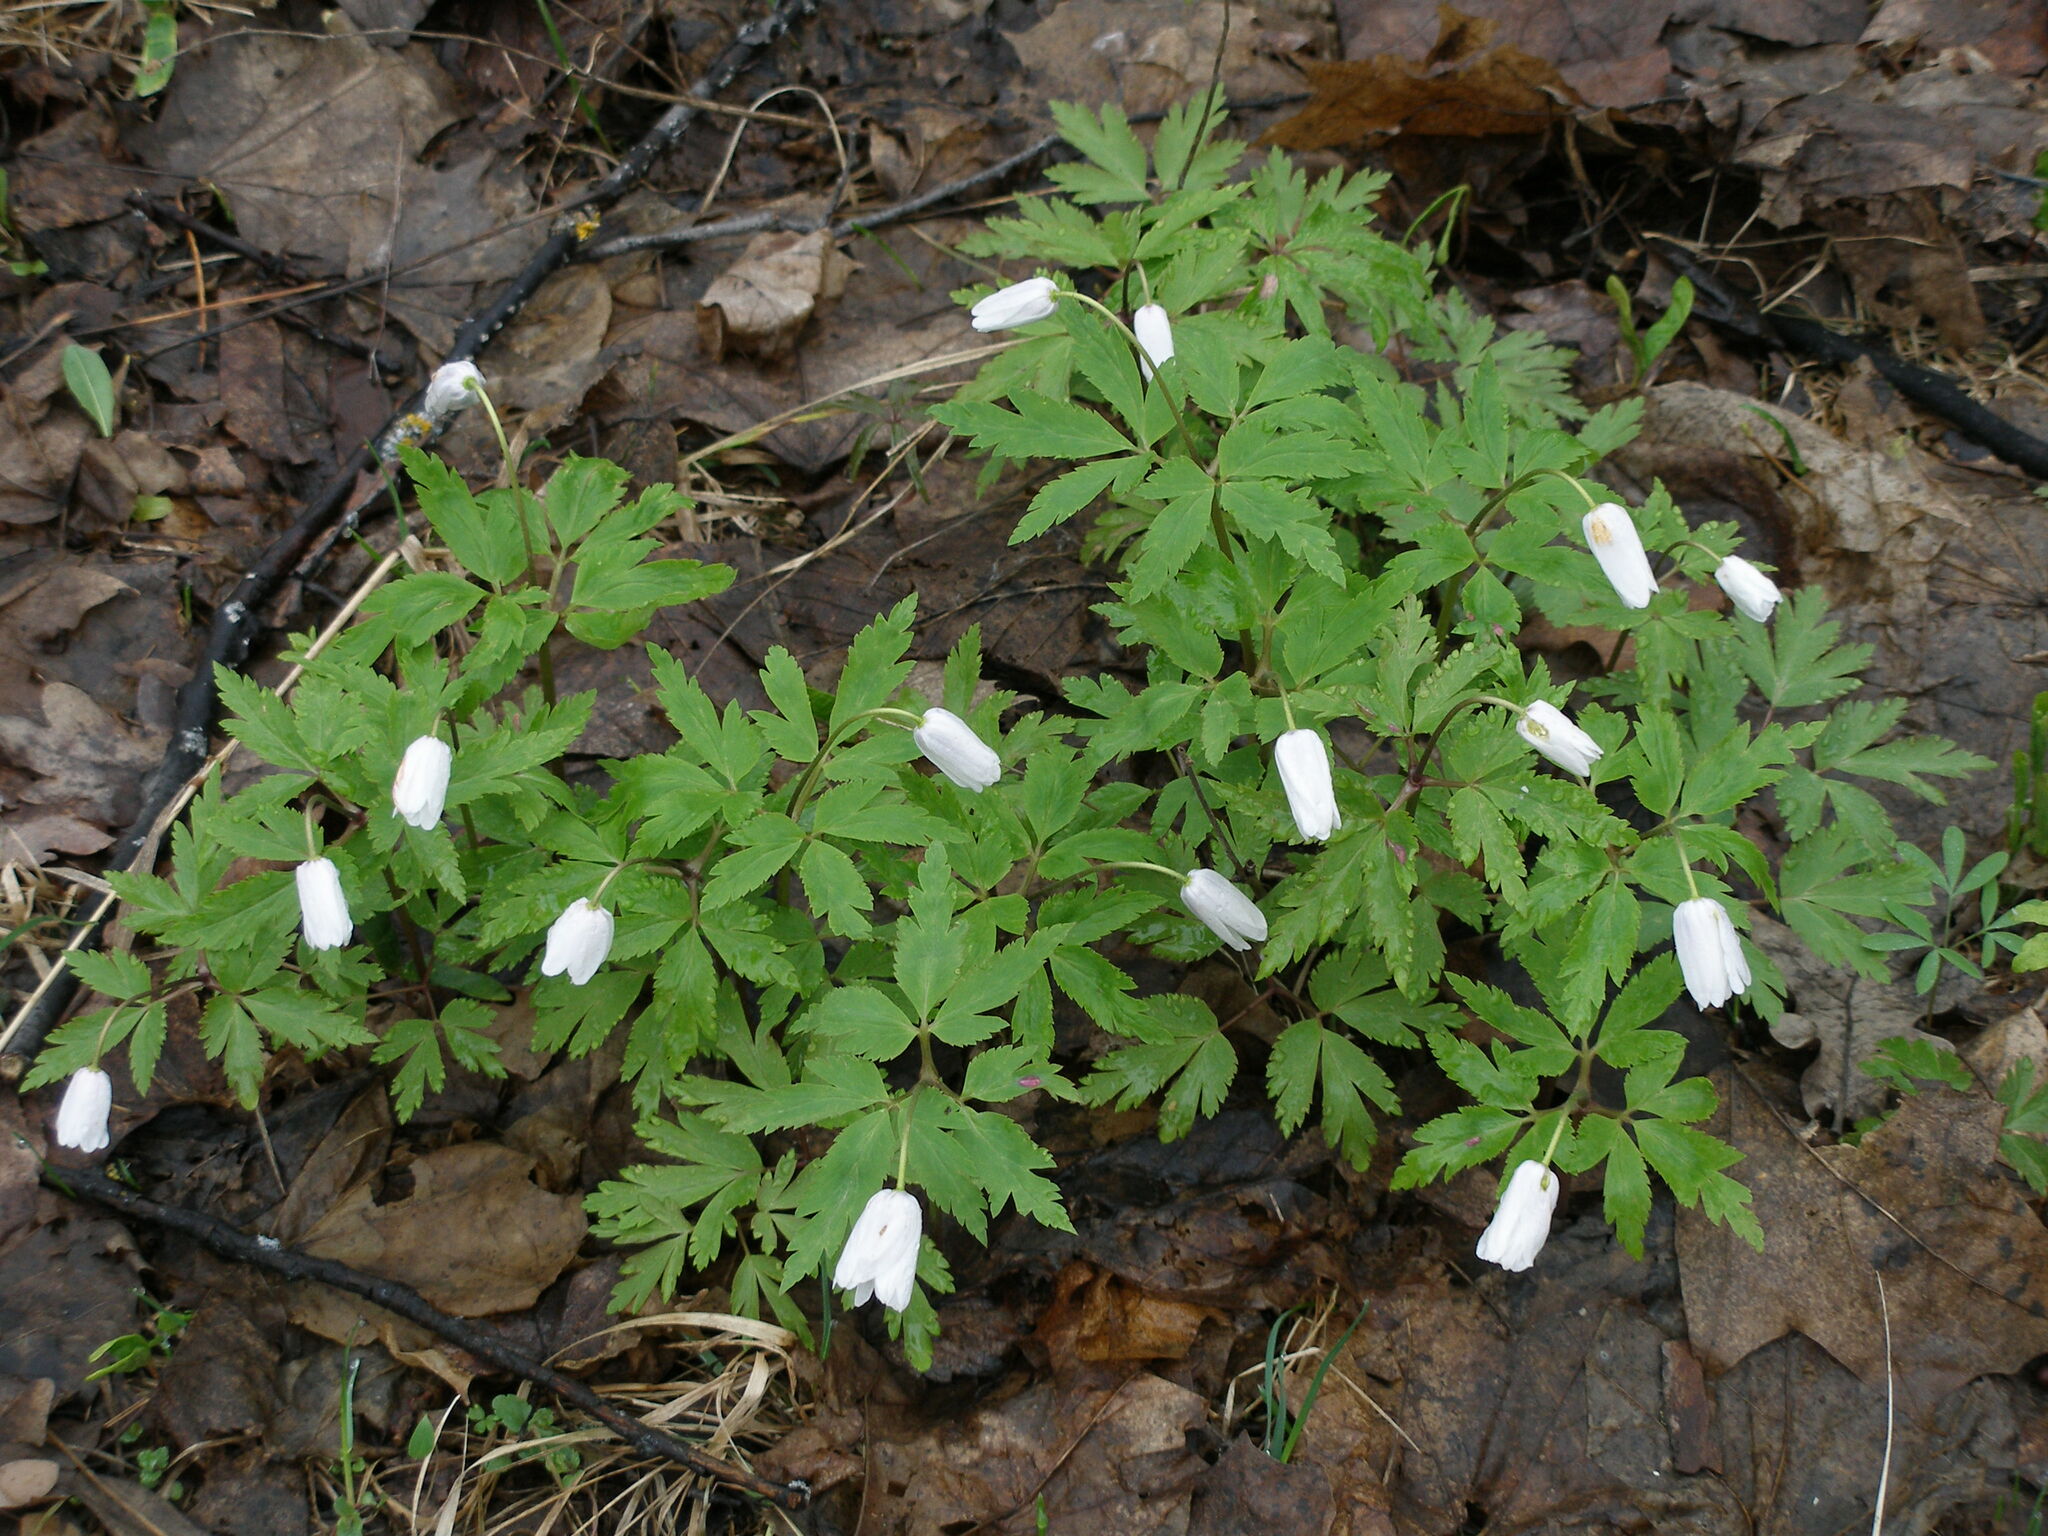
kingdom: Plantae
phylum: Tracheophyta
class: Magnoliopsida
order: Ranunculales
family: Ranunculaceae
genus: Anemone
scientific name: Anemone altaica
